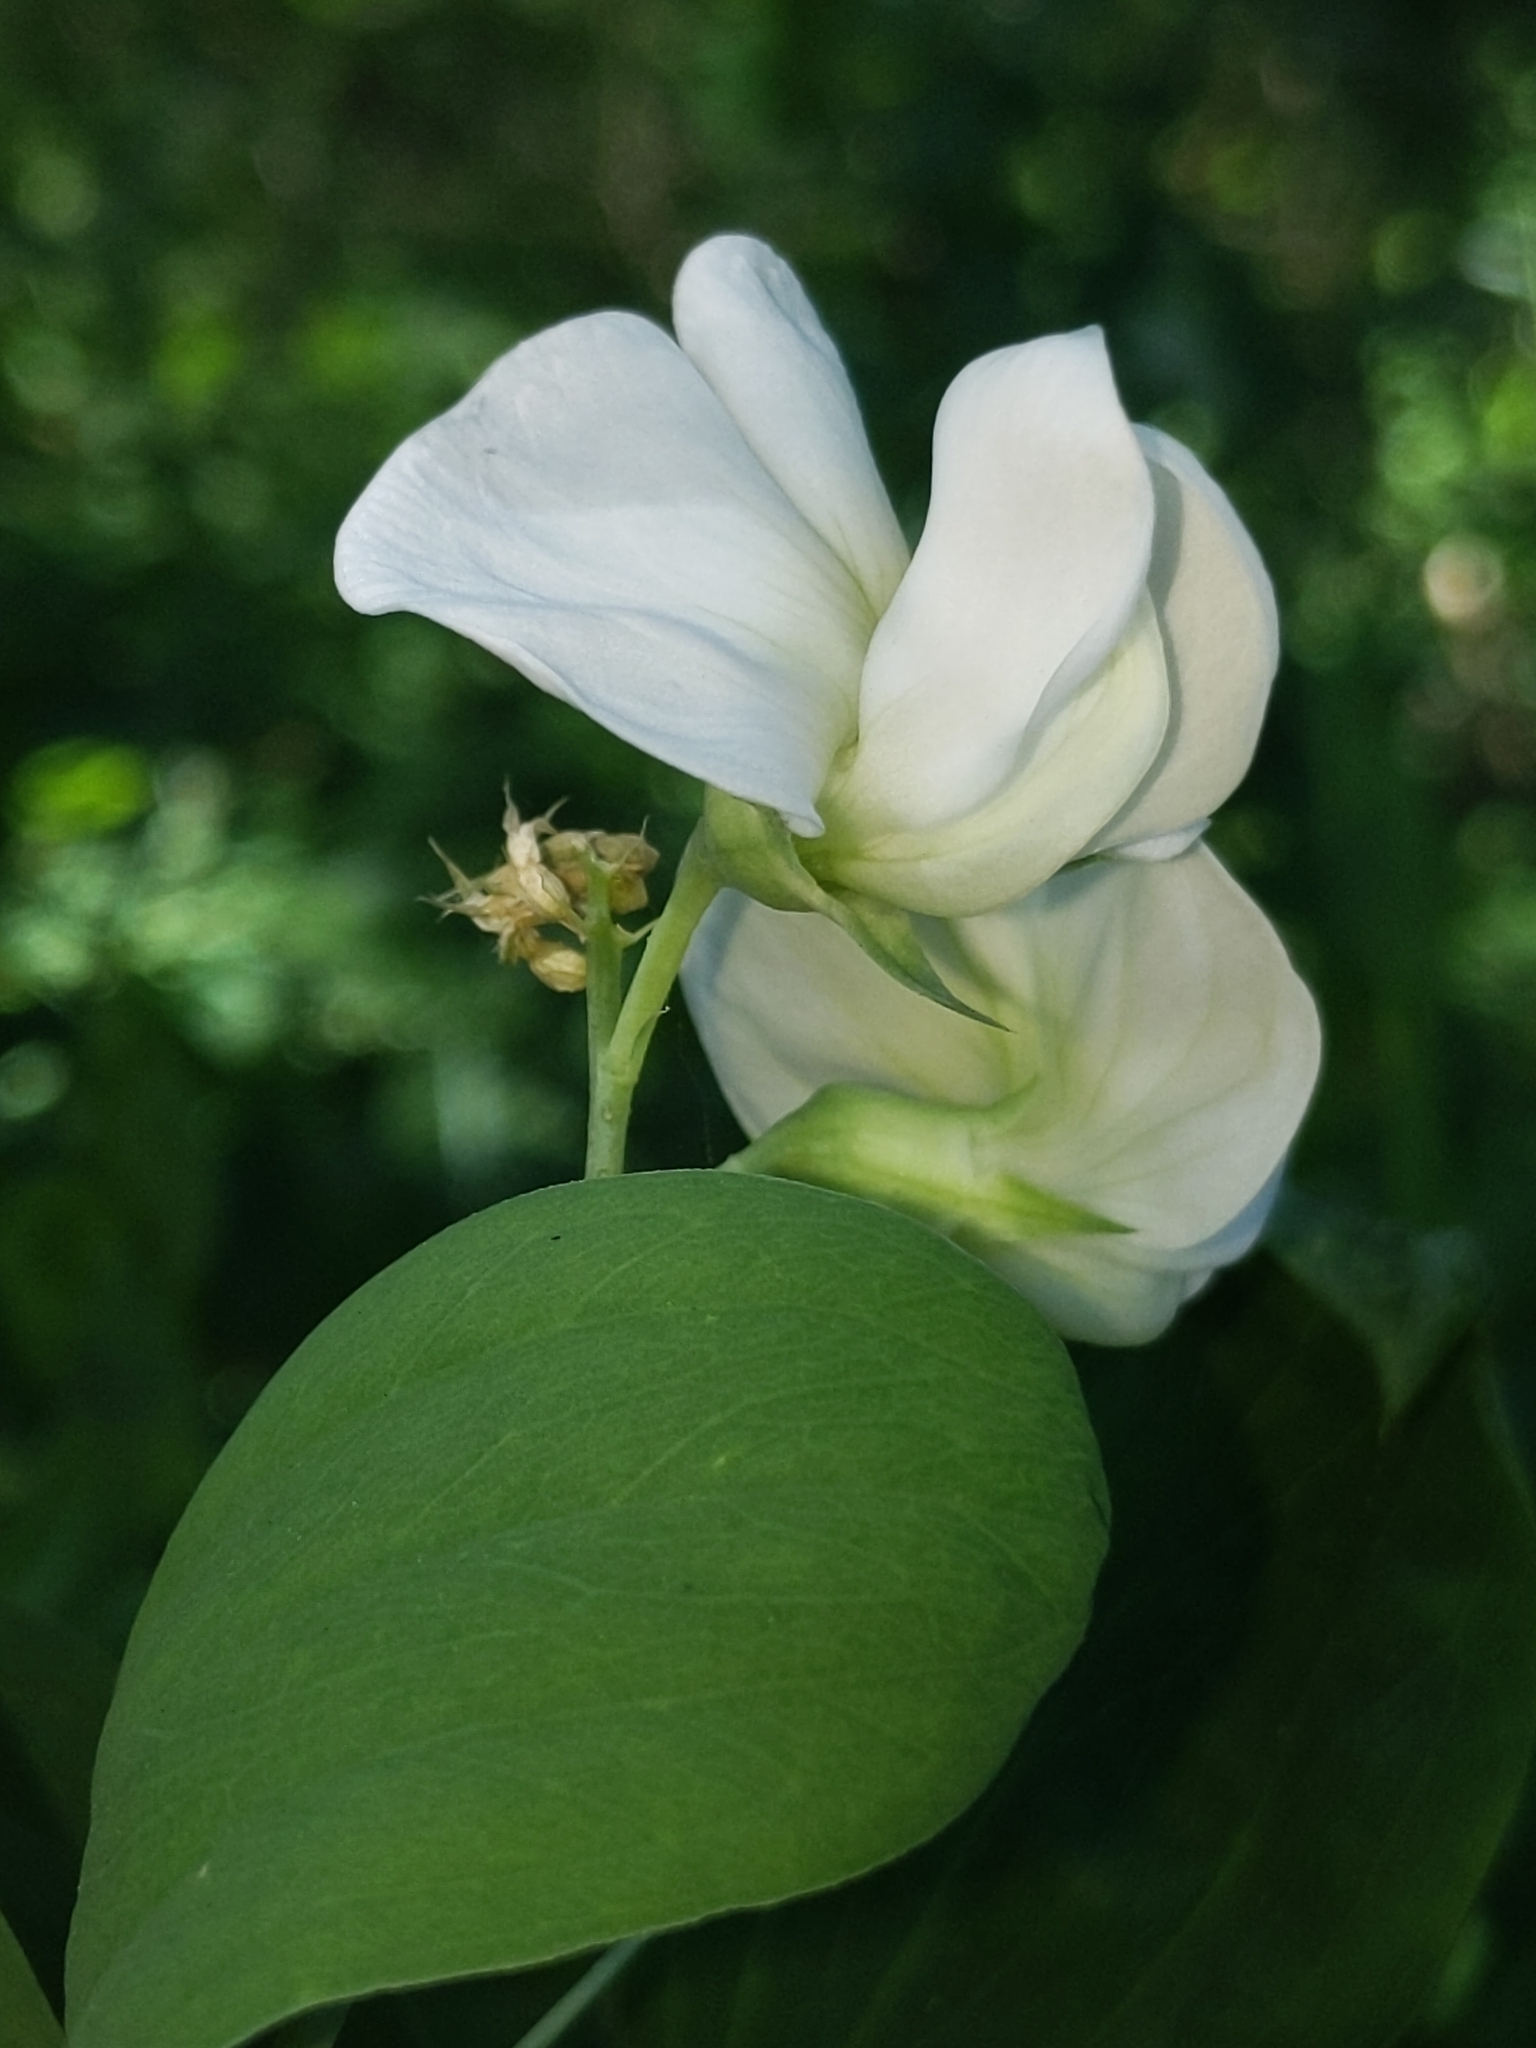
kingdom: Plantae
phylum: Tracheophyta
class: Magnoliopsida
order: Fabales
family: Fabaceae
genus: Lathyrus
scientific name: Lathyrus latifolius
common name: Perennial pea
